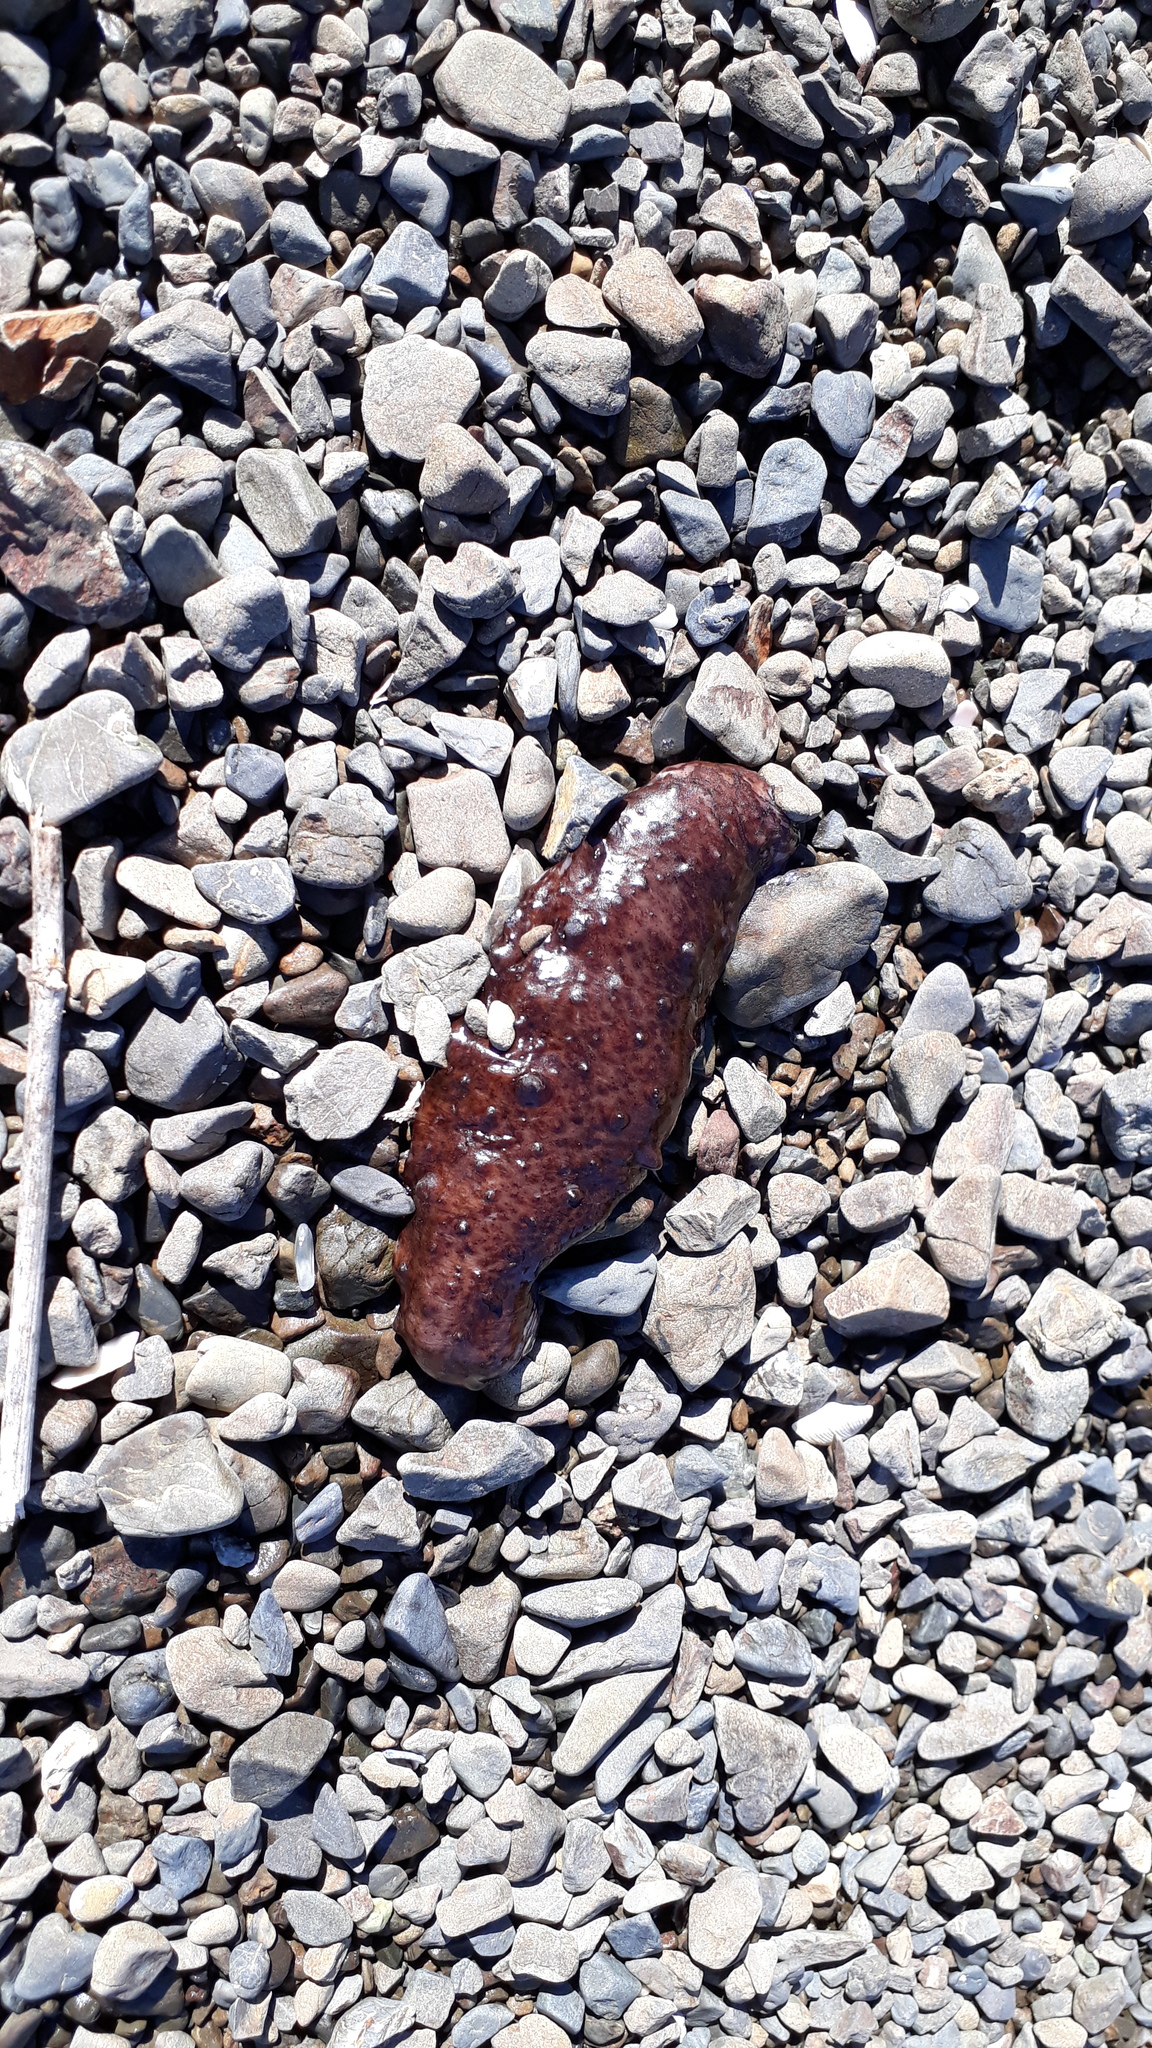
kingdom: Animalia
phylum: Echinodermata
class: Holothuroidea
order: Synallactida
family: Stichopodidae
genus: Australostichopus
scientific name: Australostichopus mollis
